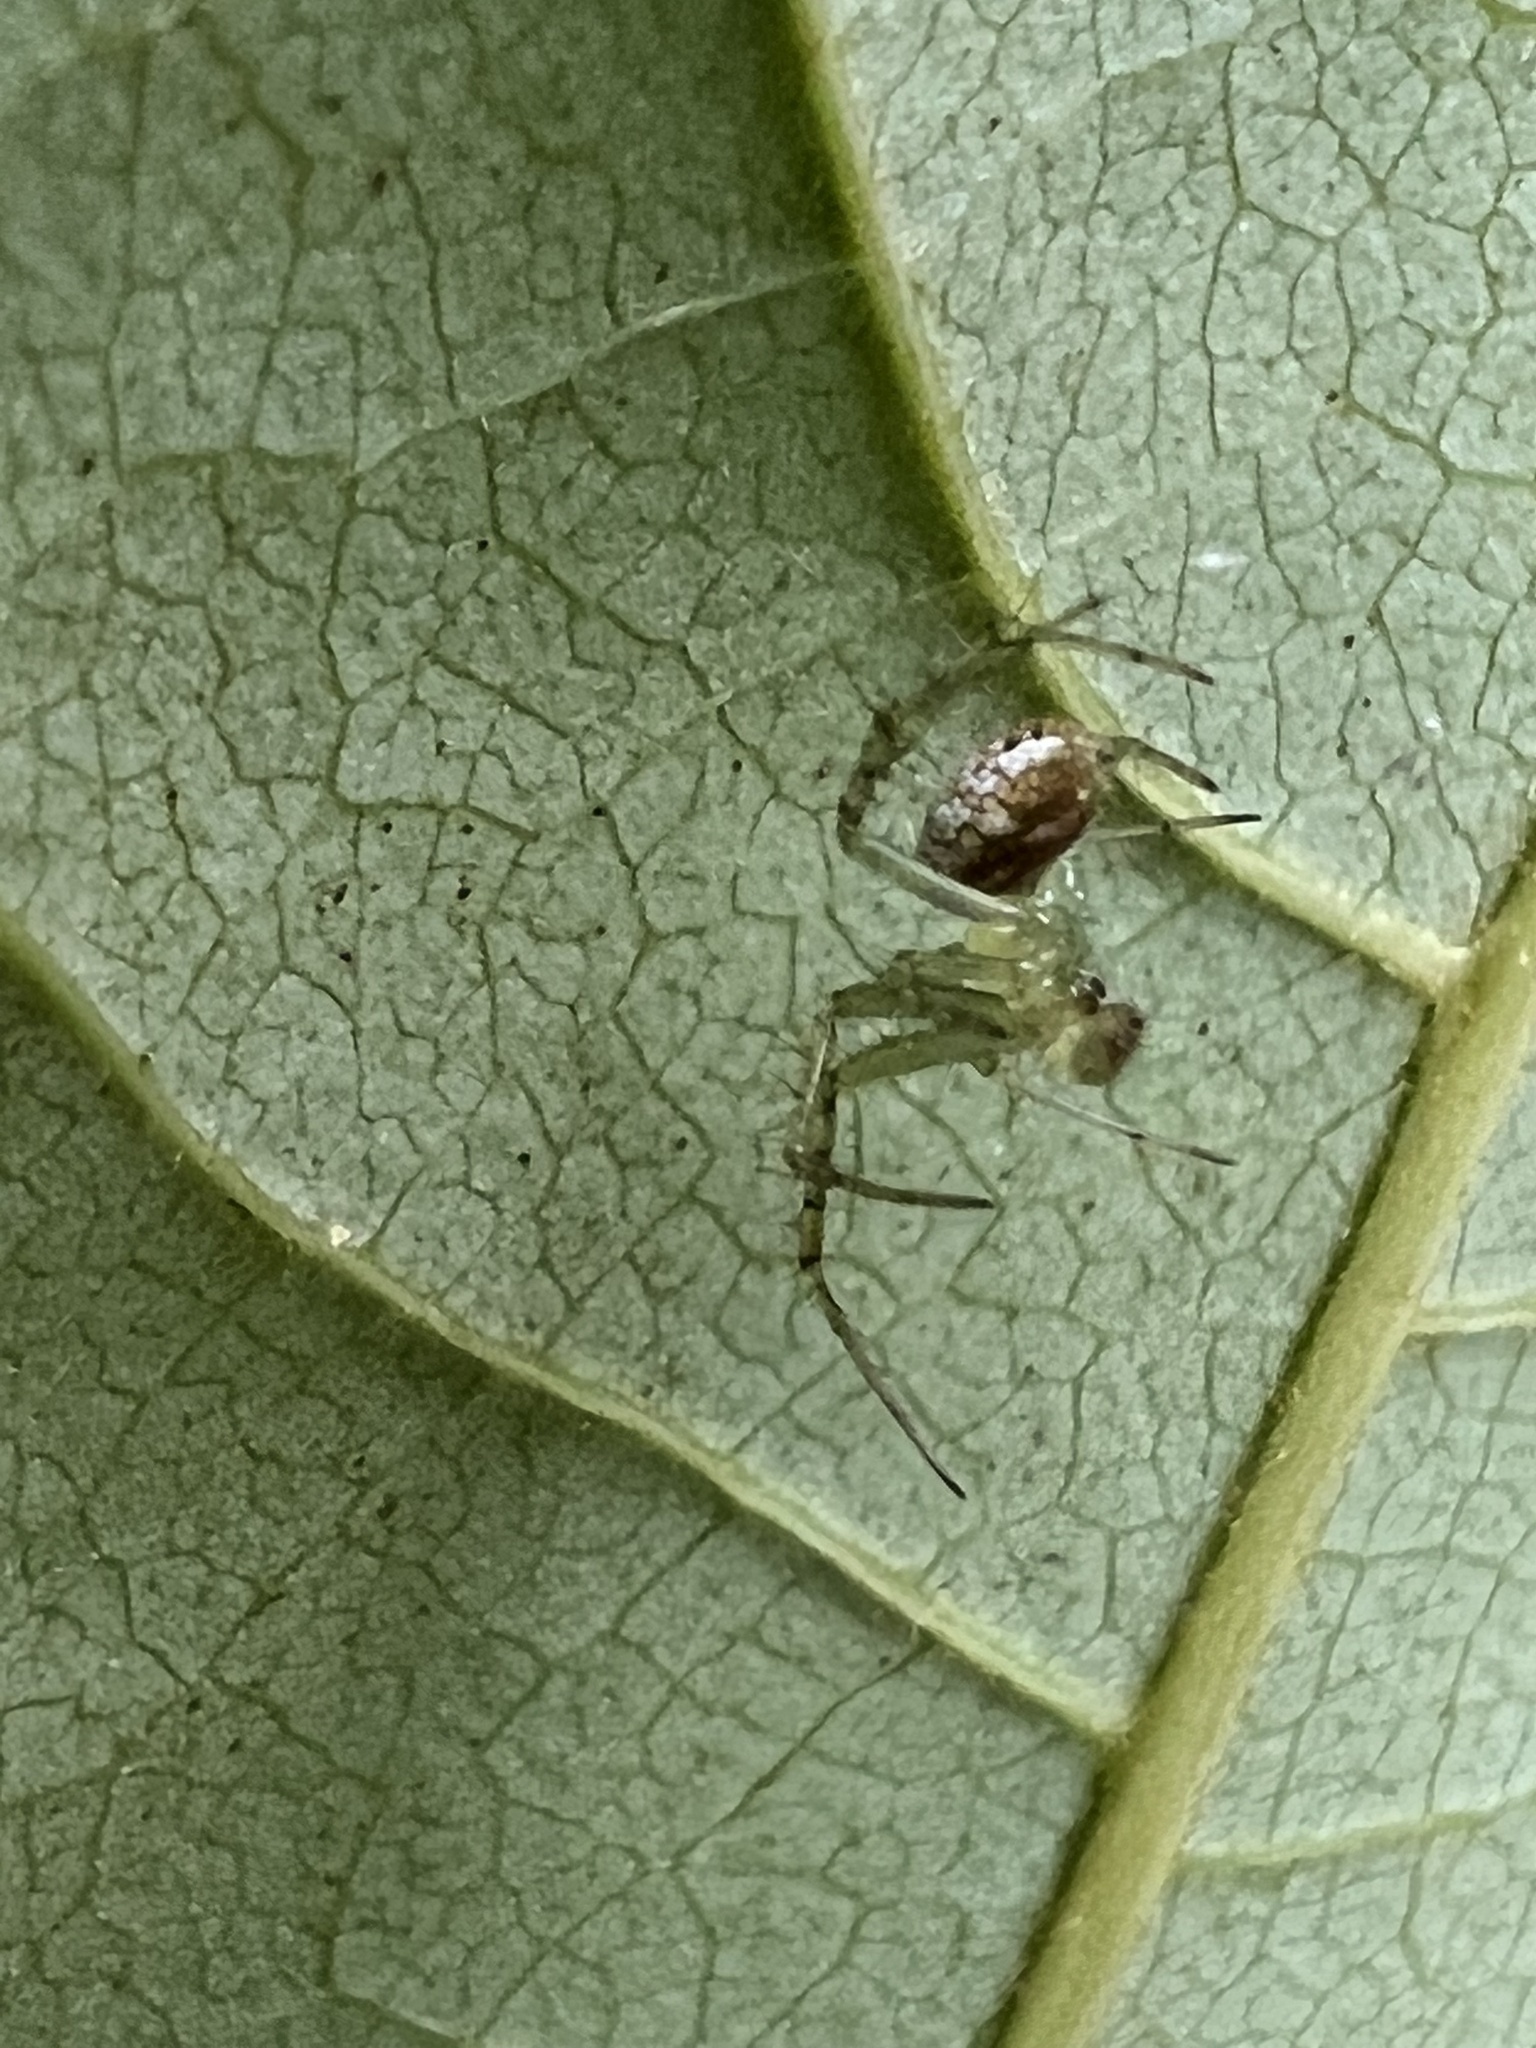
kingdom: Animalia
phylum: Arthropoda
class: Arachnida
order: Araneae
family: Araneidae
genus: Mangora
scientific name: Mangora maculata
